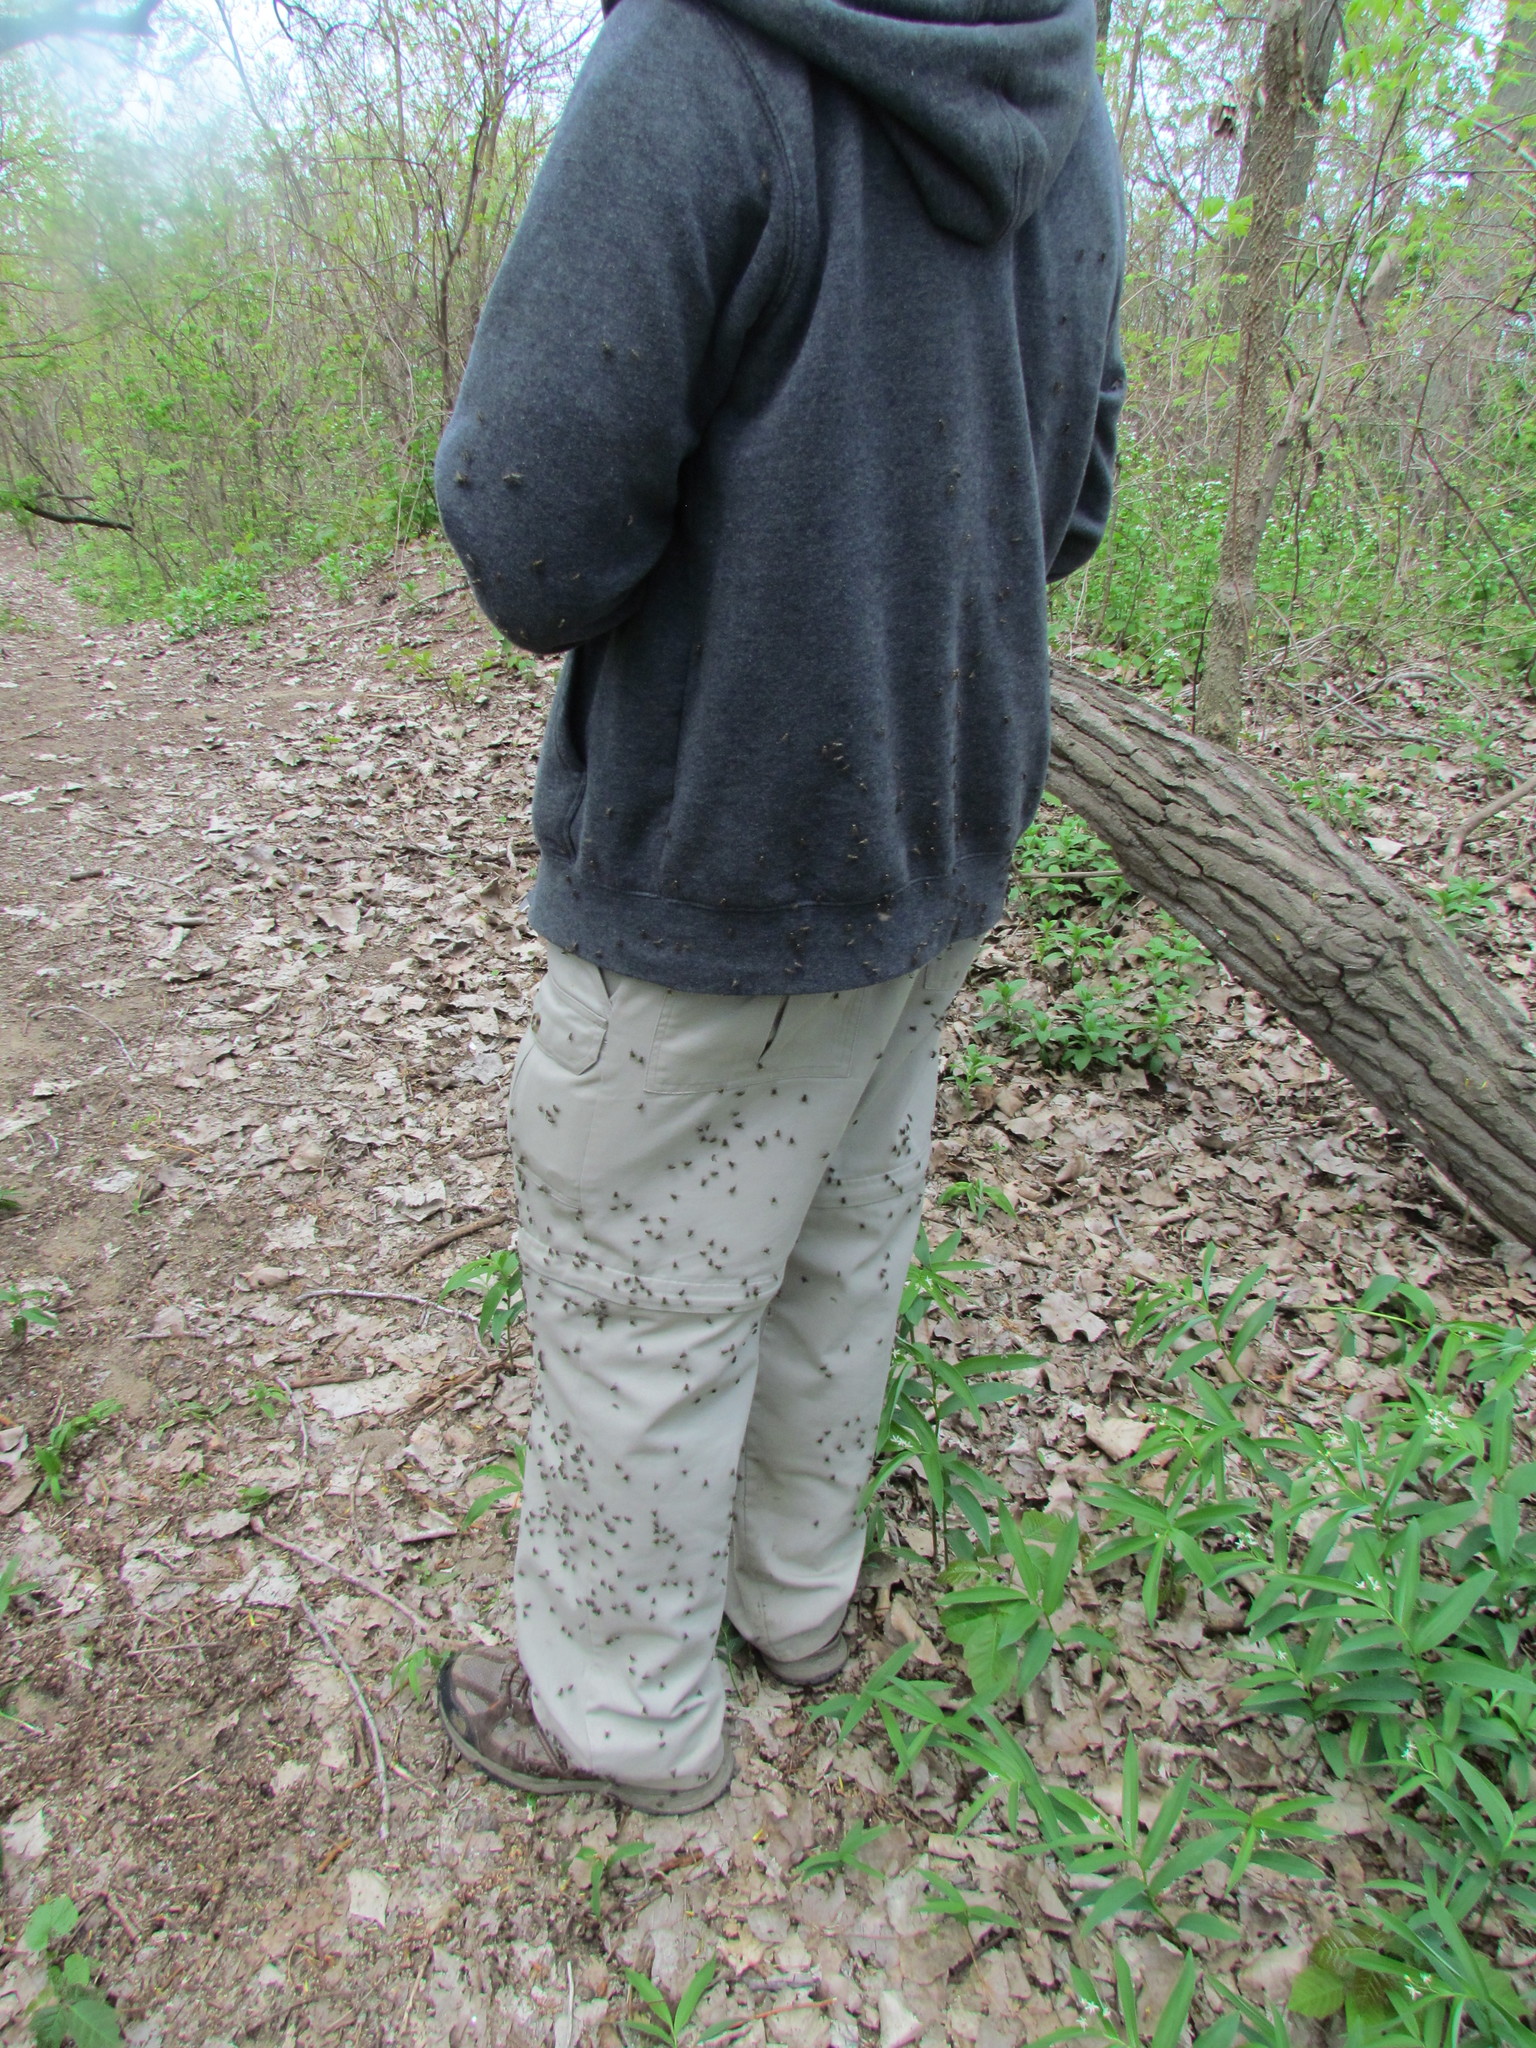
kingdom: Animalia
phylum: Arthropoda
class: Insecta
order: Diptera
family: Muscidae
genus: Stomoxys
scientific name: Stomoxys calcitrans
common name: Stable fly
